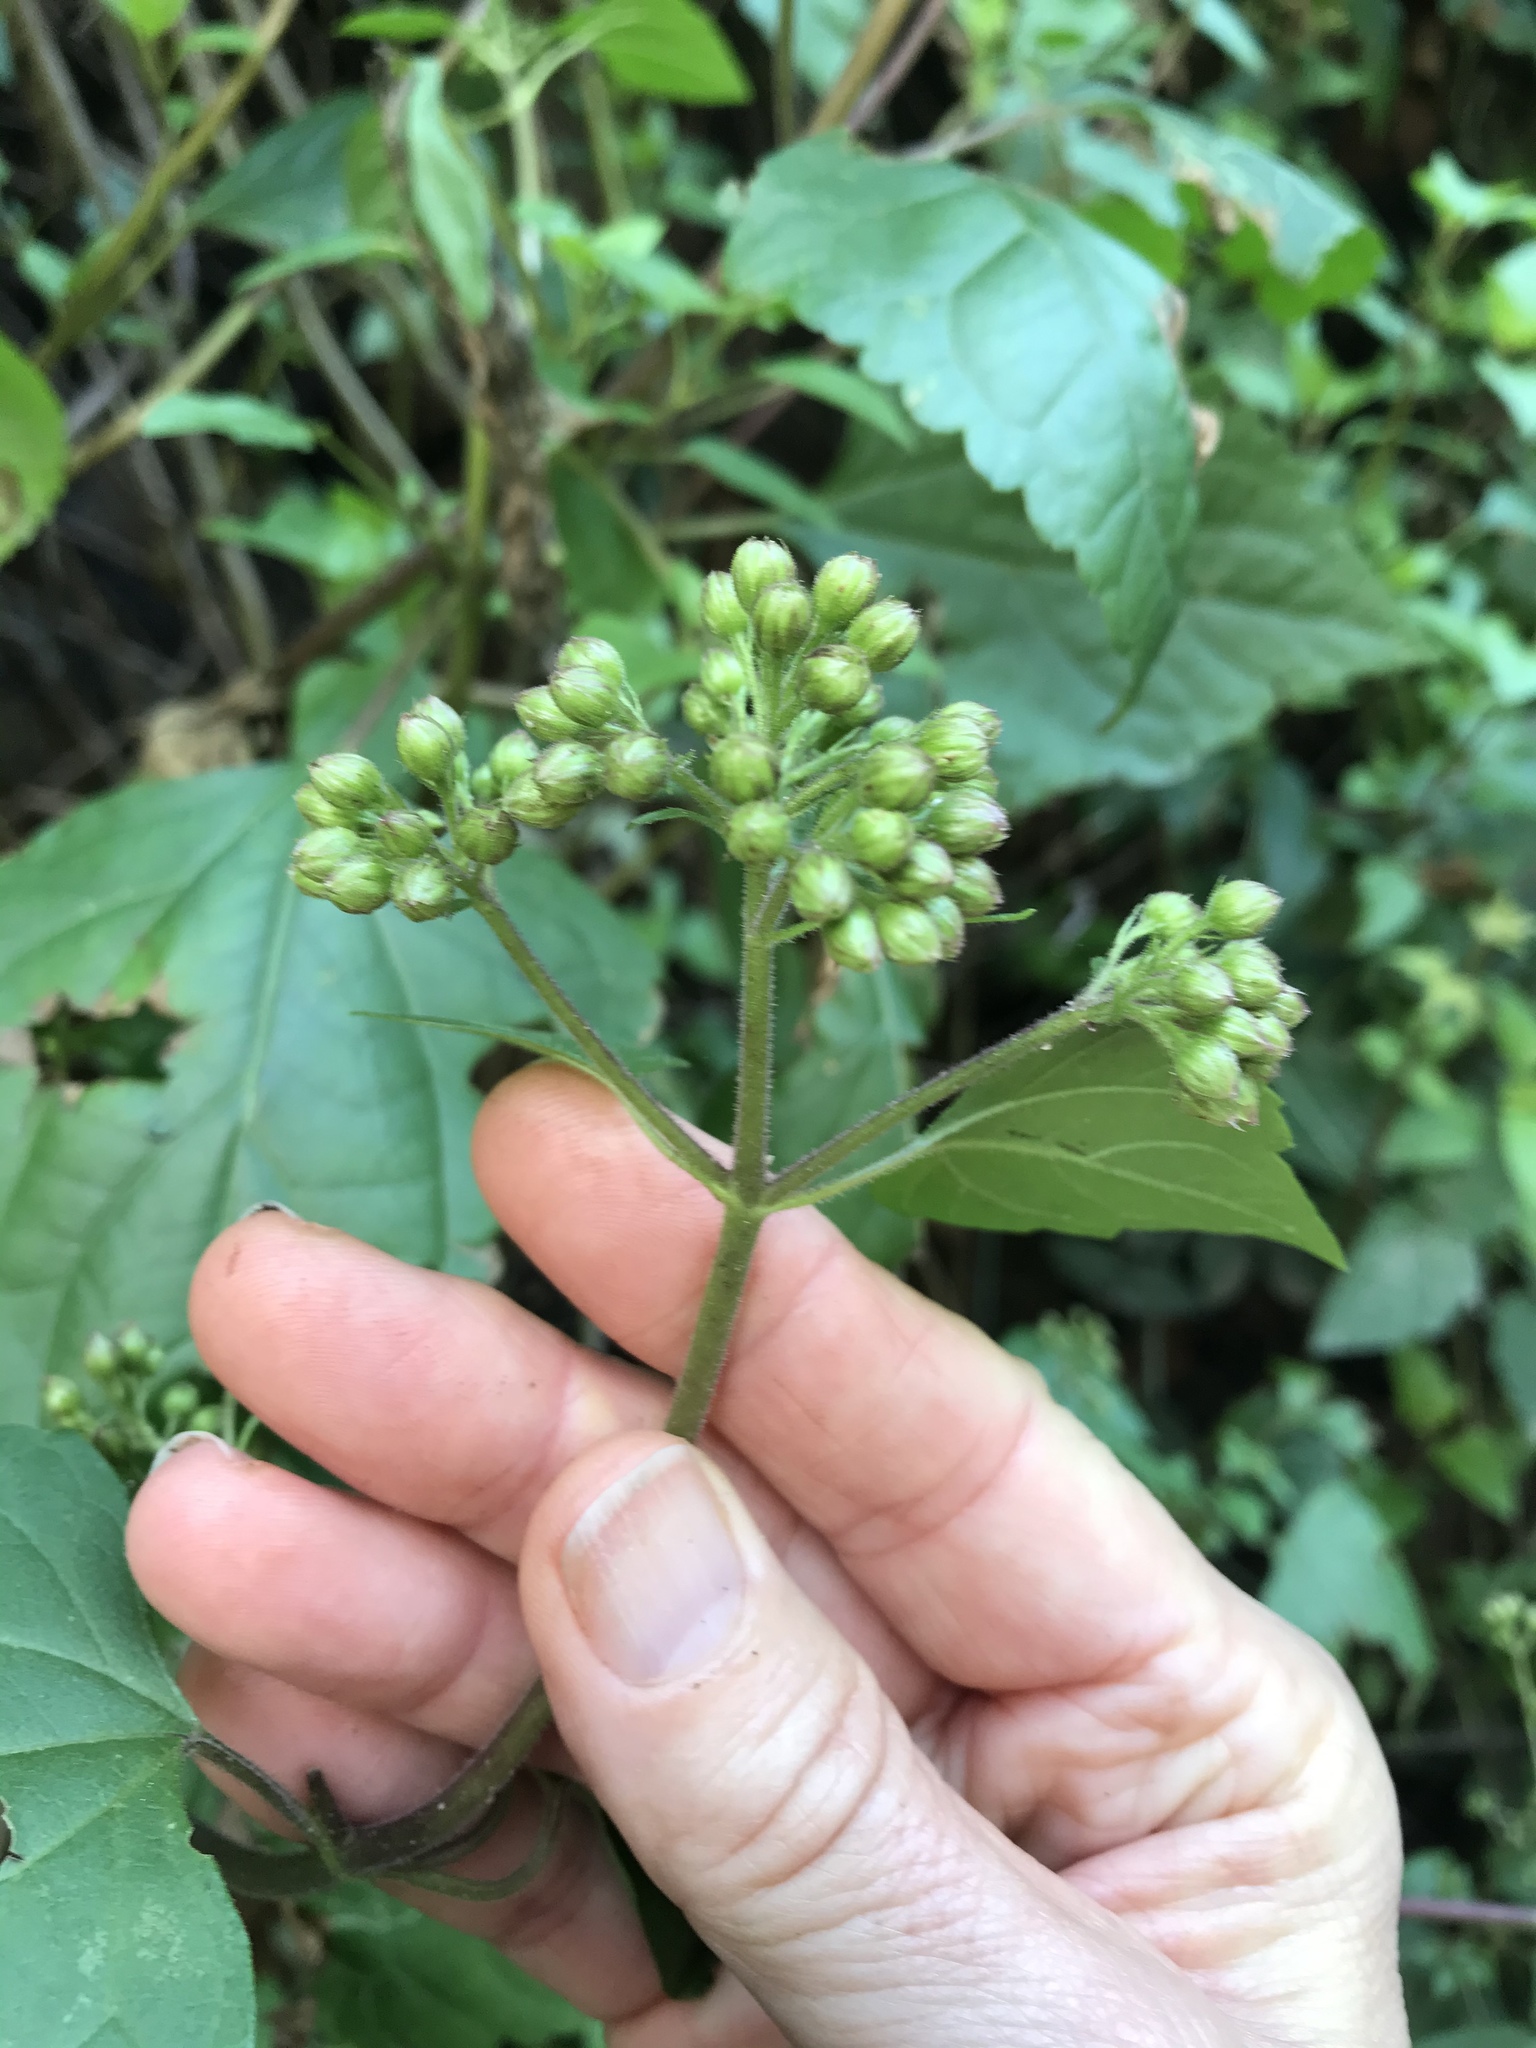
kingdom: Plantae
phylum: Tracheophyta
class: Magnoliopsida
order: Asterales
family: Asteraceae
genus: Ageratina
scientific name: Ageratina adenophora
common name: Sticky snakeroot
